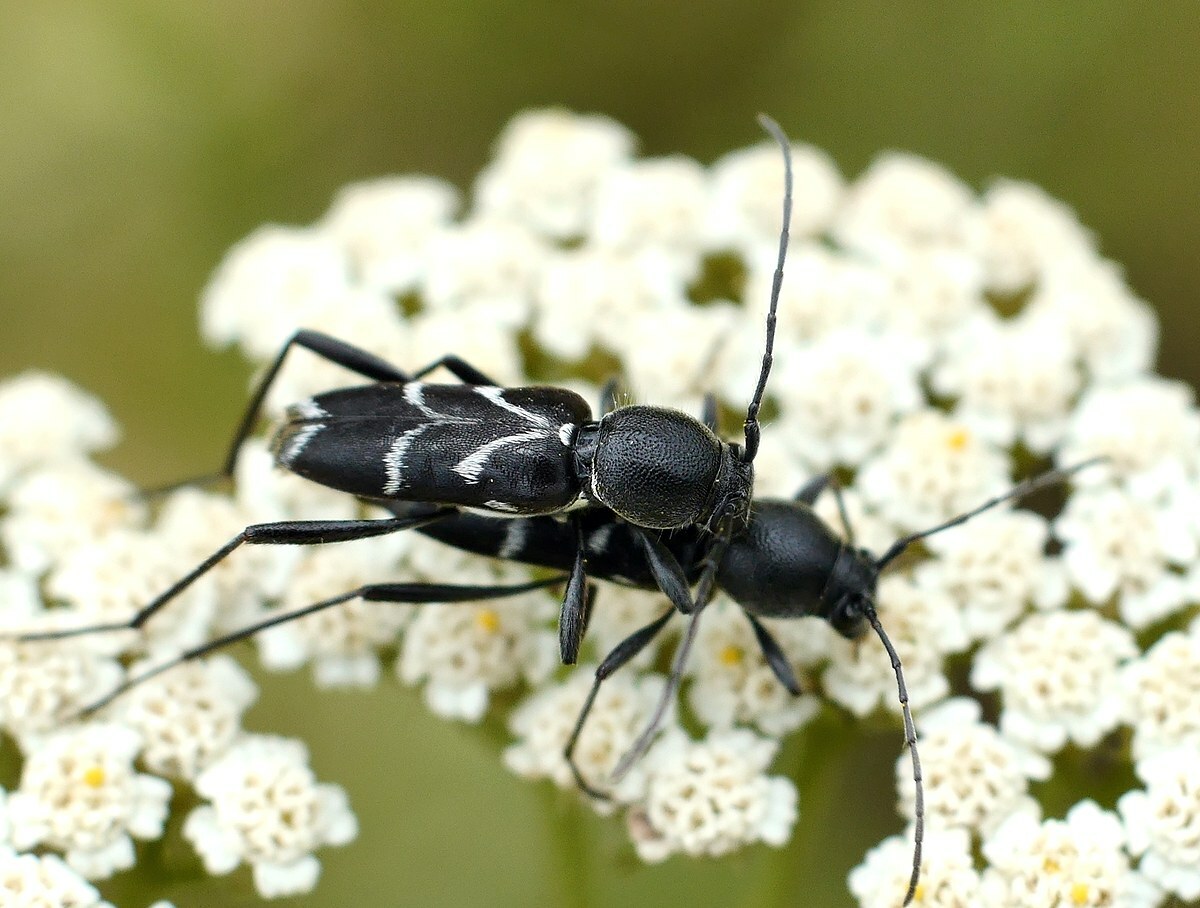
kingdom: Animalia
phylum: Arthropoda
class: Insecta
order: Coleoptera
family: Cerambycidae
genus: Chlorophorus
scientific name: Chlorophorus sartor
